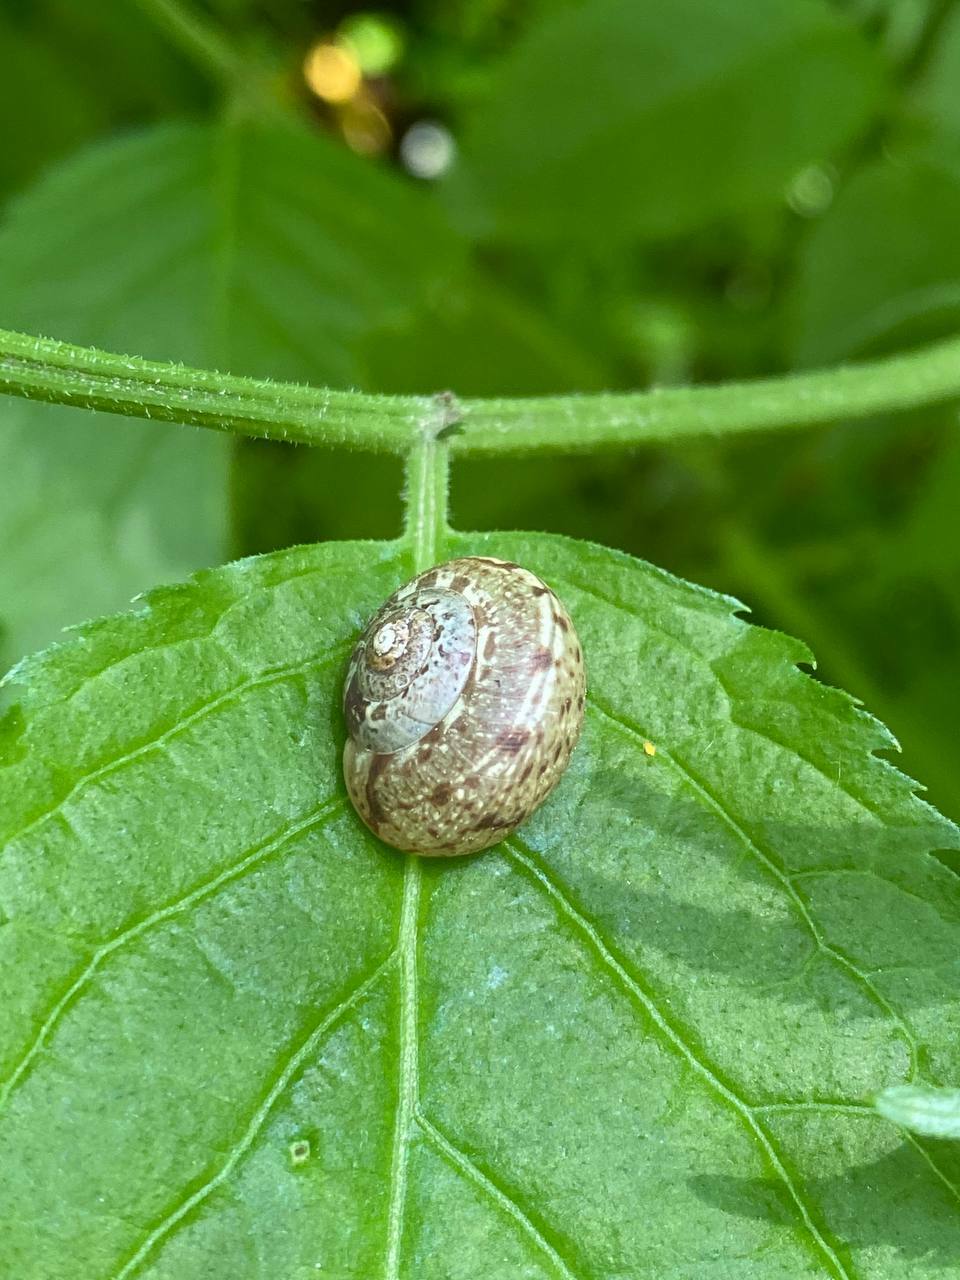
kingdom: Animalia
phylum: Mollusca
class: Gastropoda
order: Stylommatophora
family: Hygromiidae
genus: Circassina
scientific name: Circassina frutis
